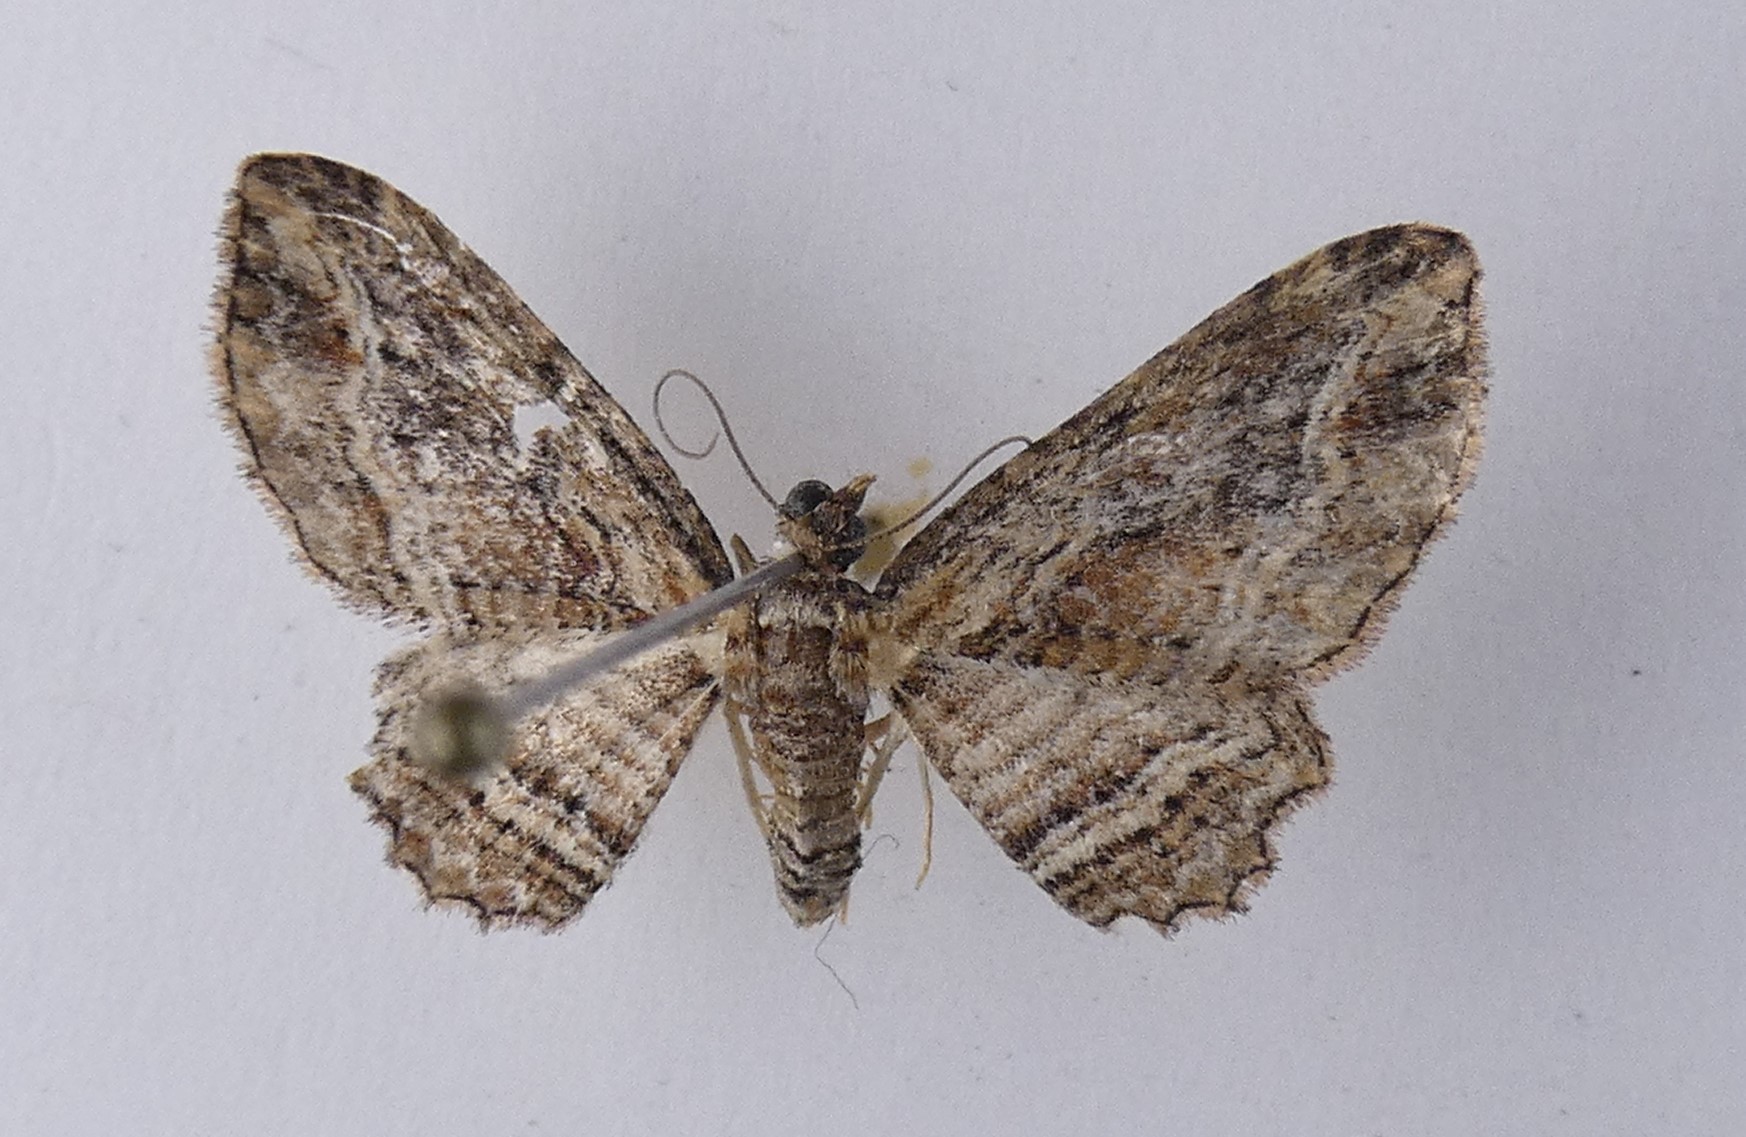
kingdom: Animalia
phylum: Arthropoda
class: Insecta
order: Lepidoptera
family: Geometridae
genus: Chloroclystis
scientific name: Chloroclystis filata
